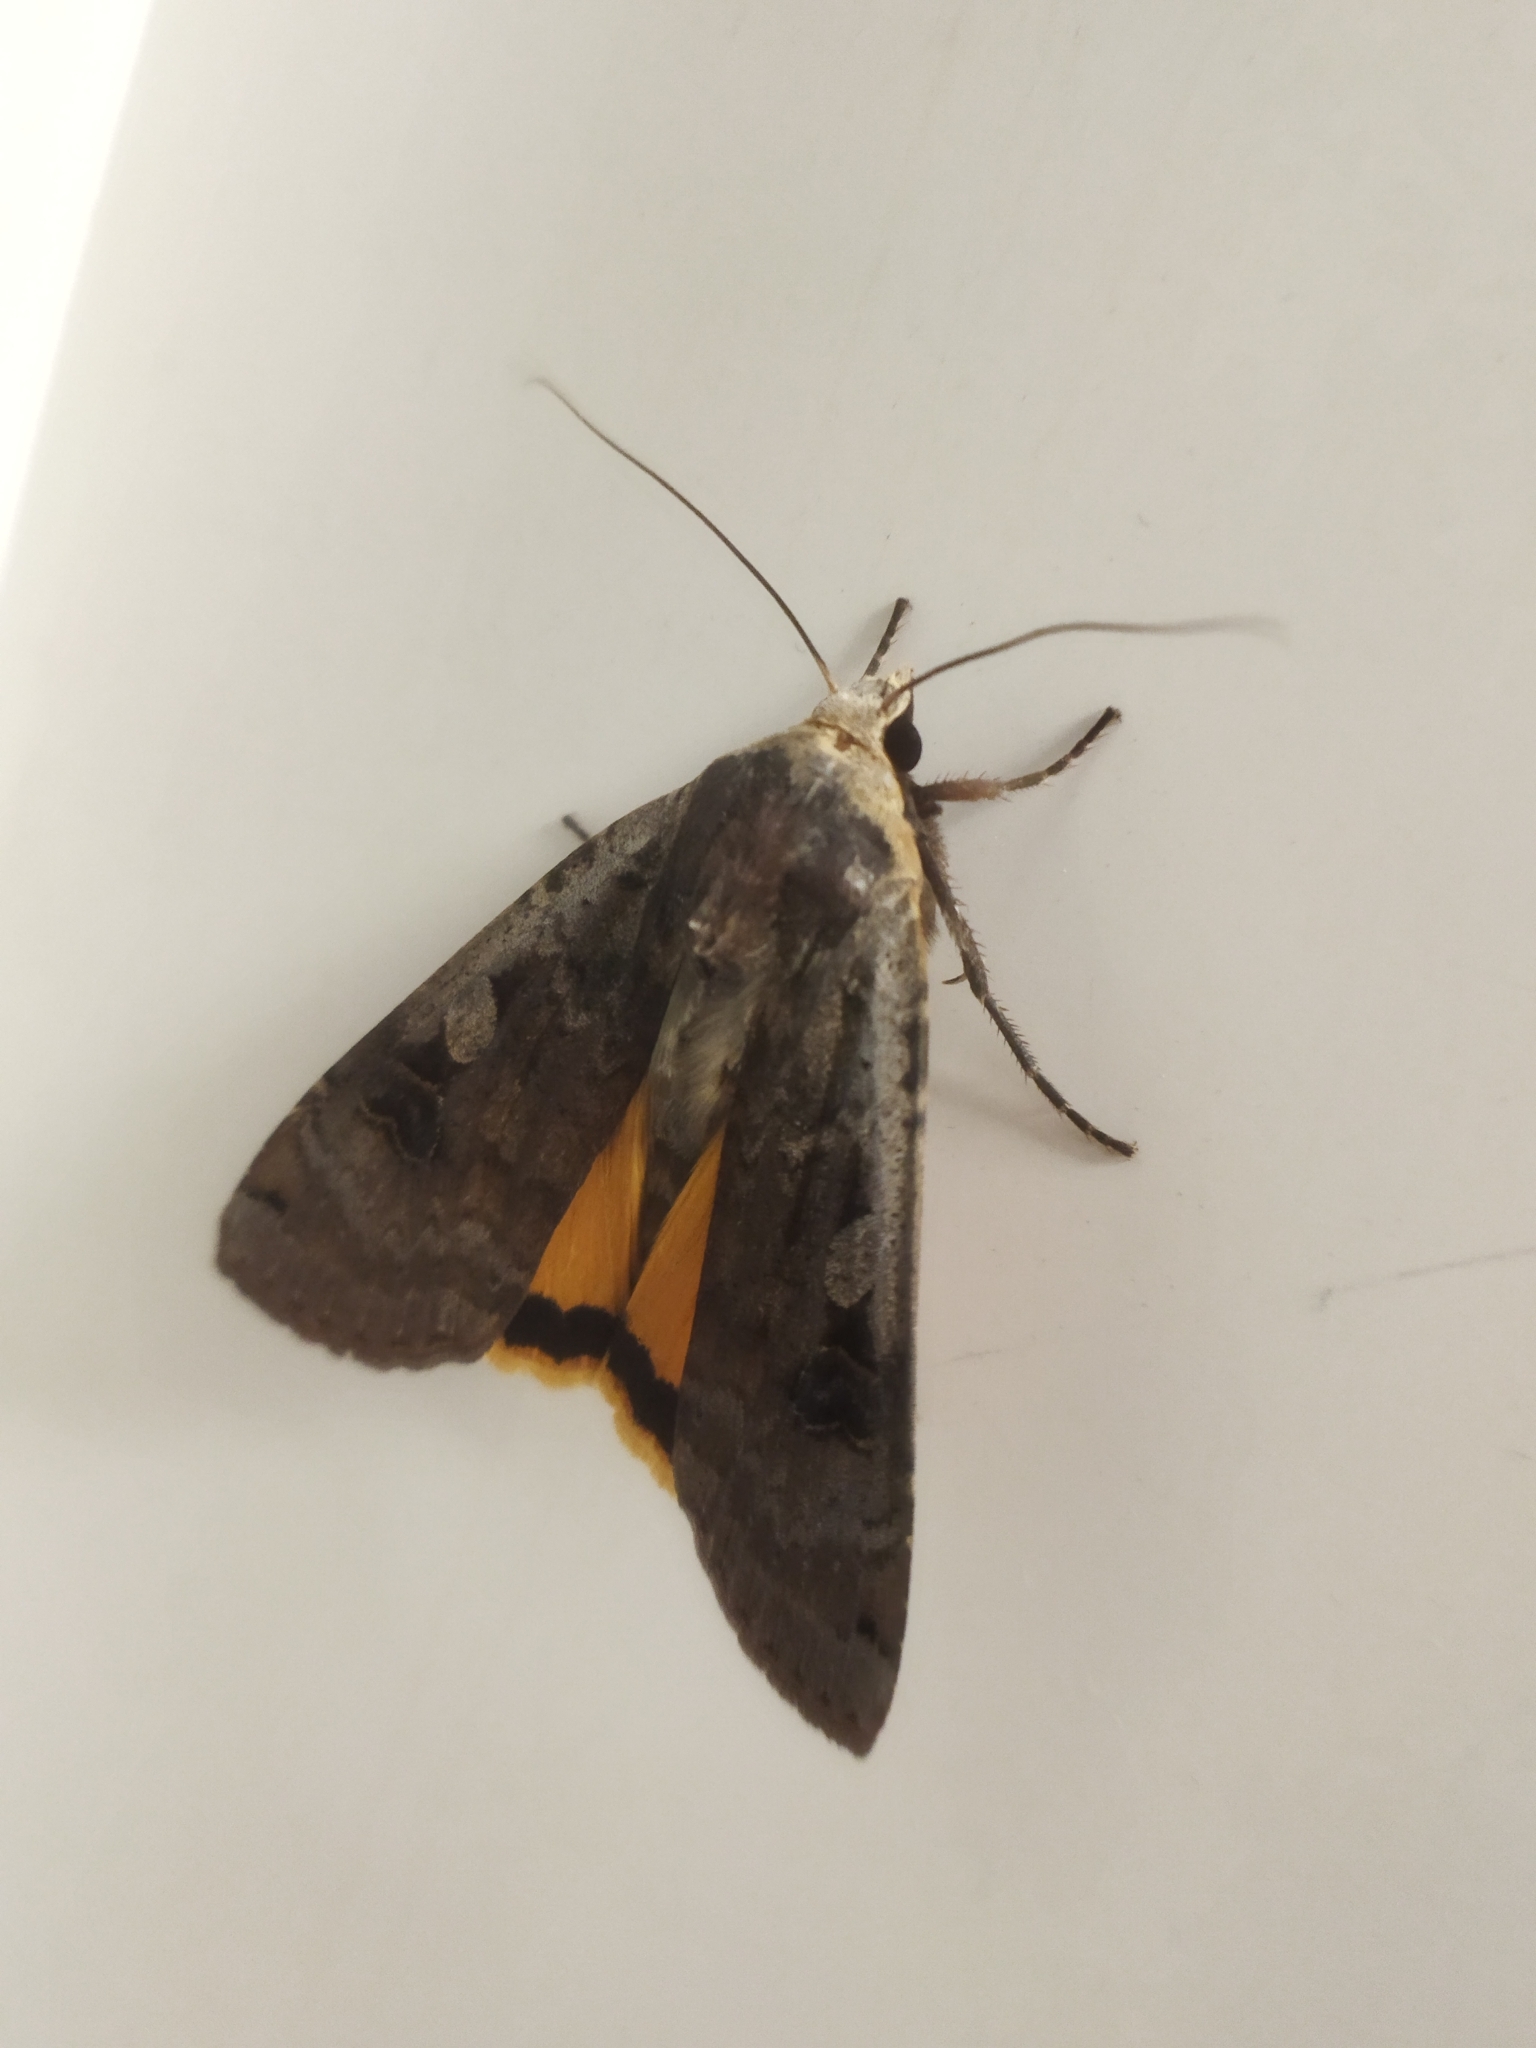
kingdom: Animalia
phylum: Arthropoda
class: Insecta
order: Lepidoptera
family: Noctuidae
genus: Noctua
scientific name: Noctua pronuba
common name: Large yellow underwing
